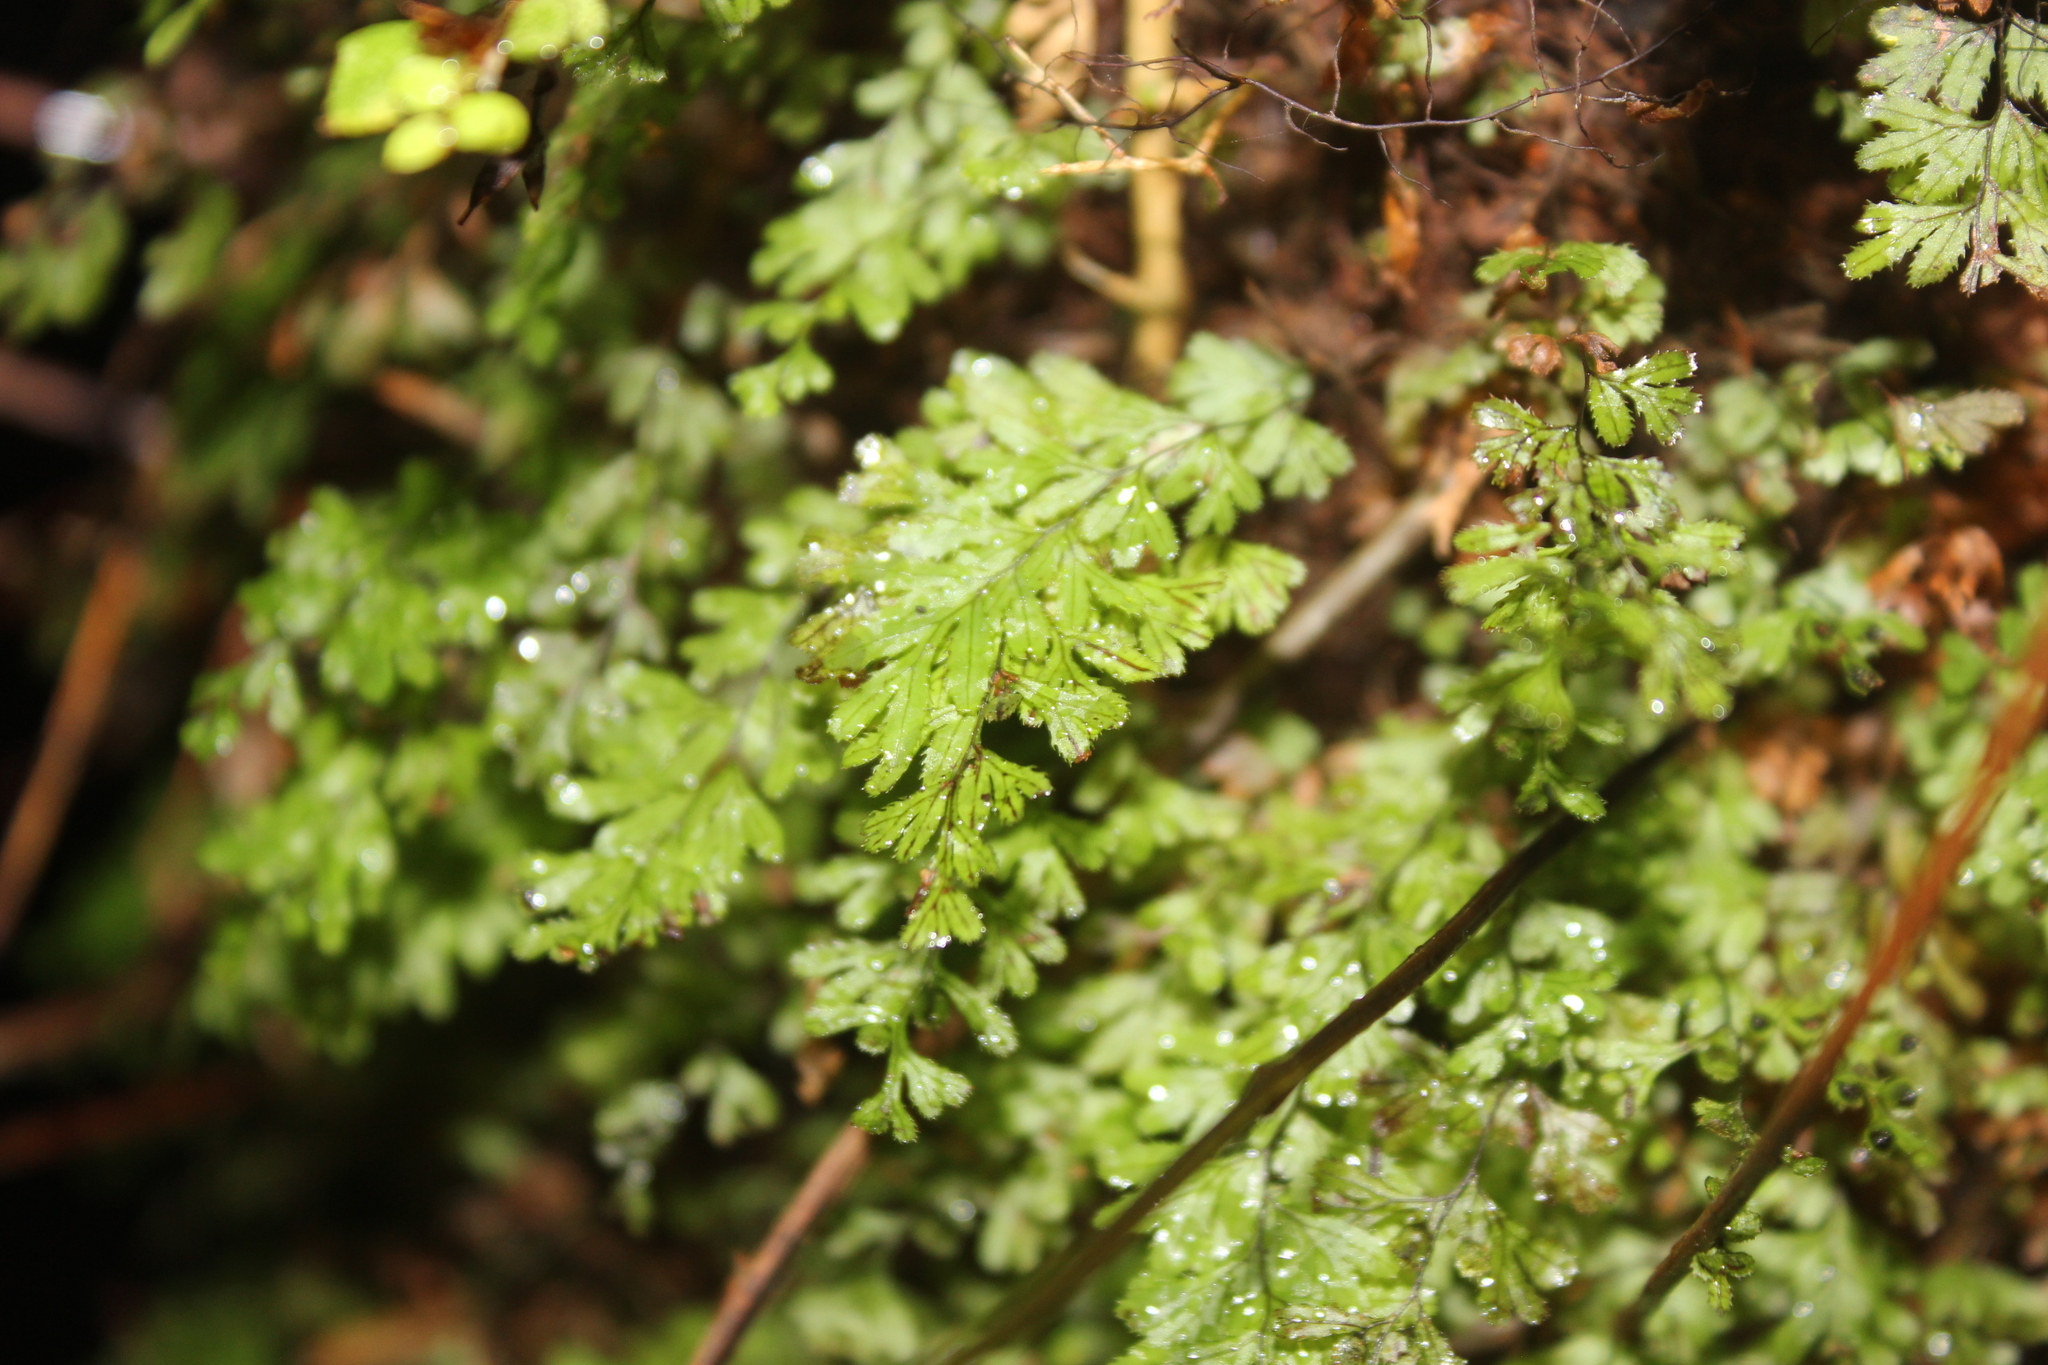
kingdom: Plantae
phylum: Tracheophyta
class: Polypodiopsida
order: Hymenophyllales
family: Hymenophyllaceae
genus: Hymenophyllum
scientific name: Hymenophyllum revolutum
